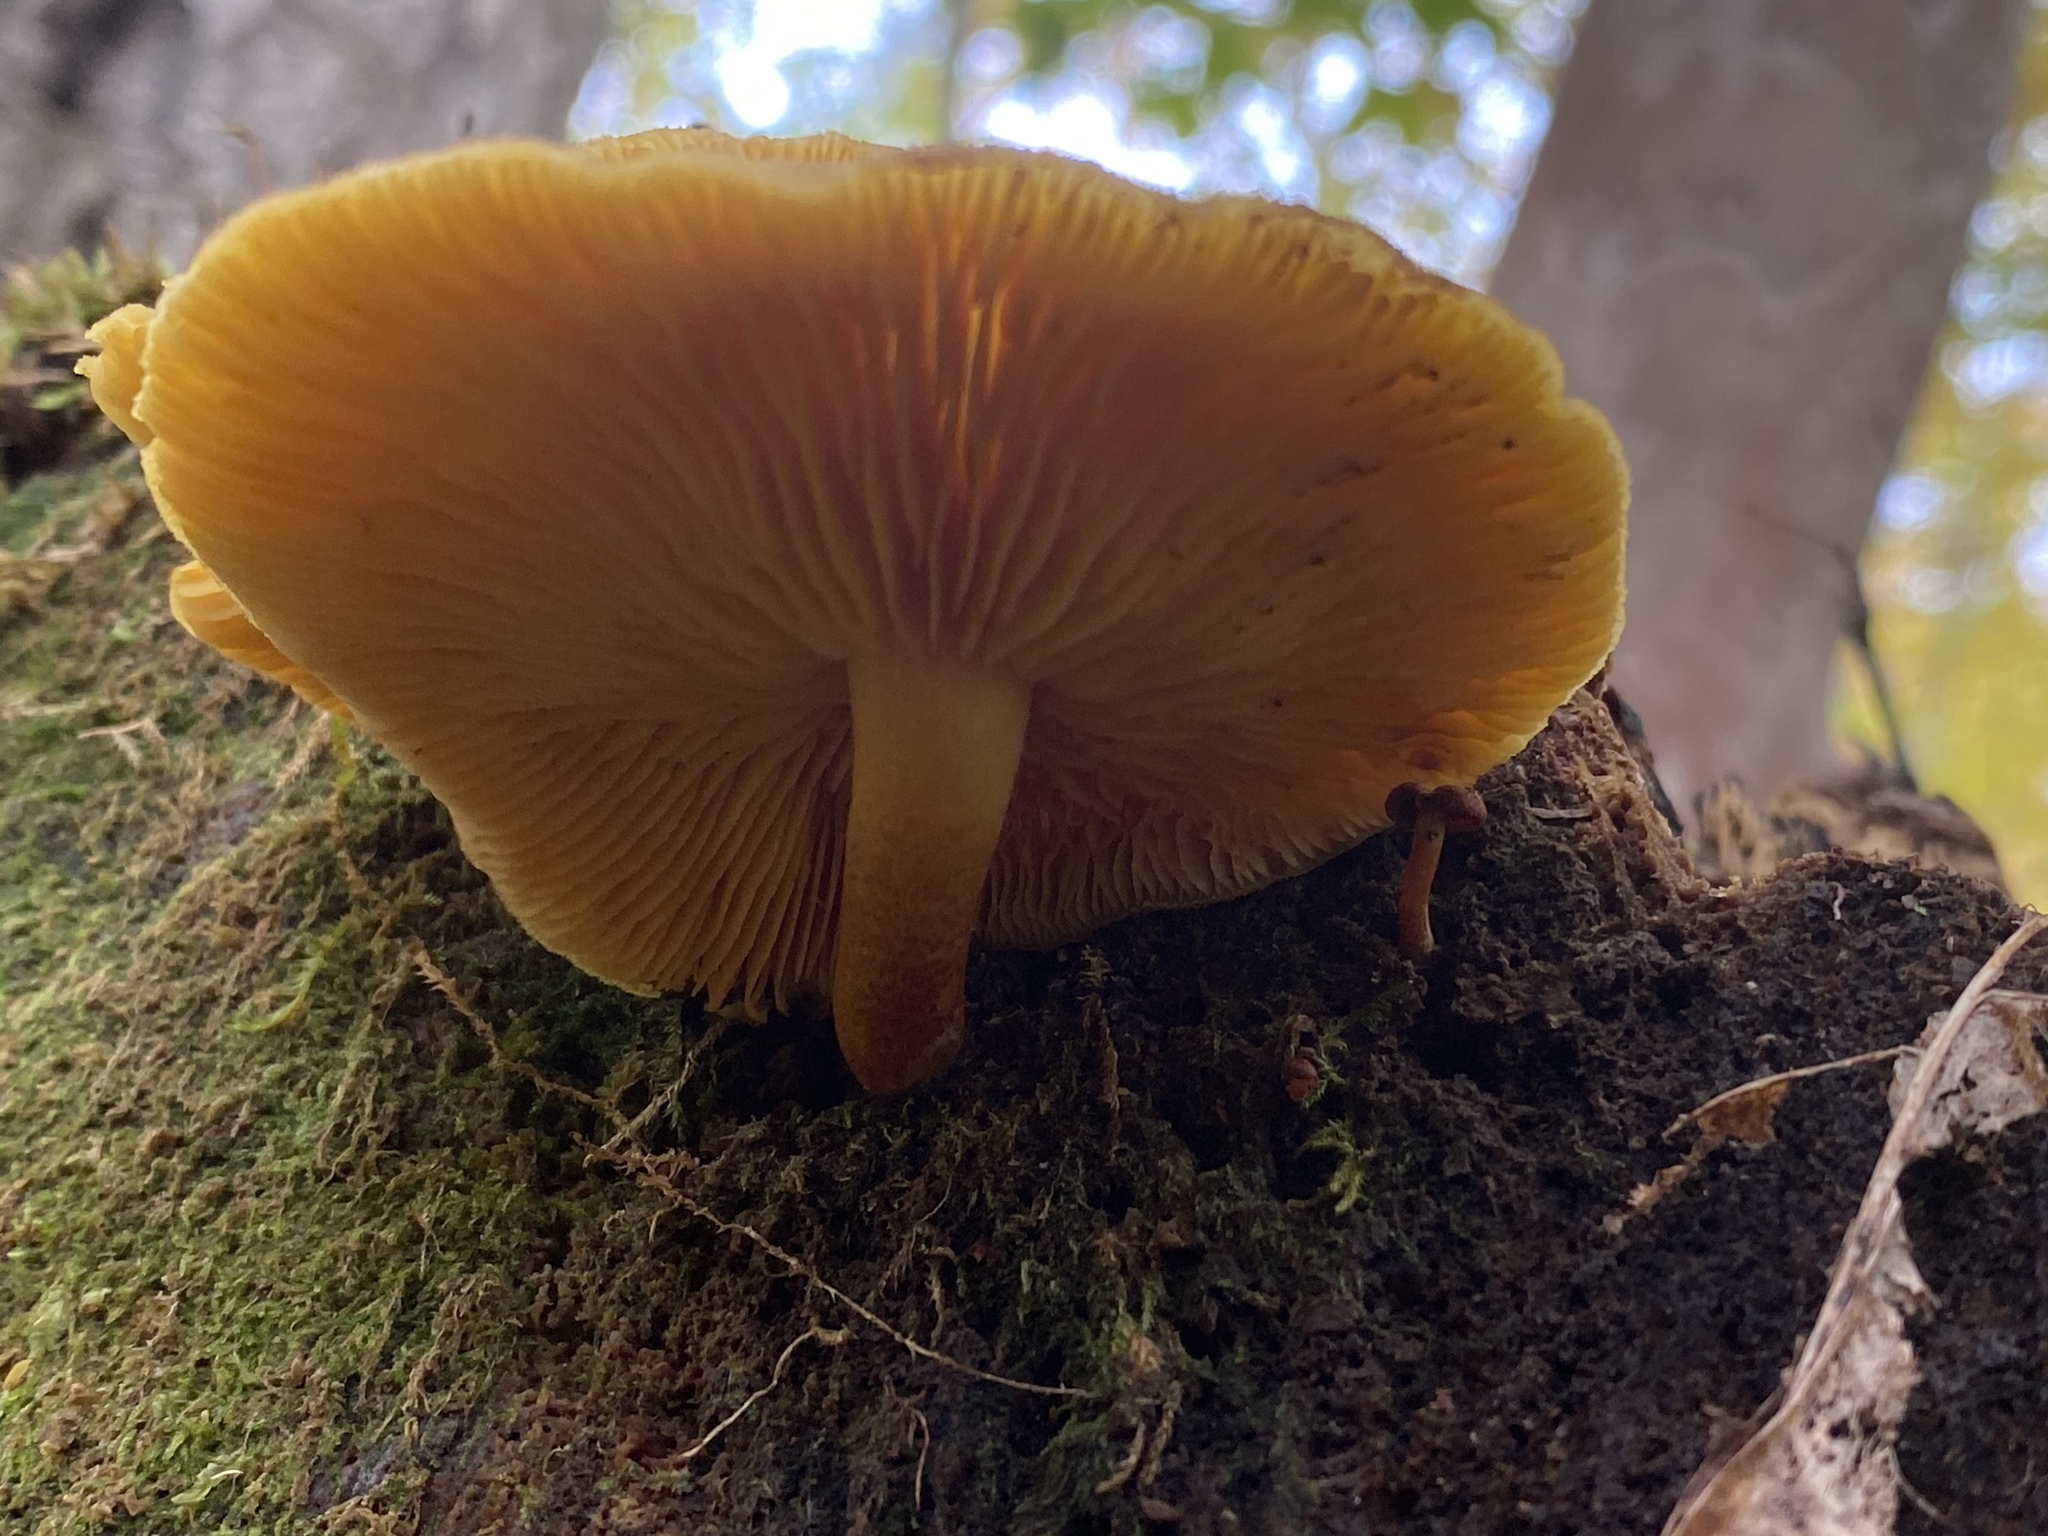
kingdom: Fungi
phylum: Basidiomycota
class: Agaricomycetes
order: Agaricales
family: Tricholomataceae
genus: Tricholomopsis
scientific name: Tricholomopsis decora
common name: Prunes and custard
